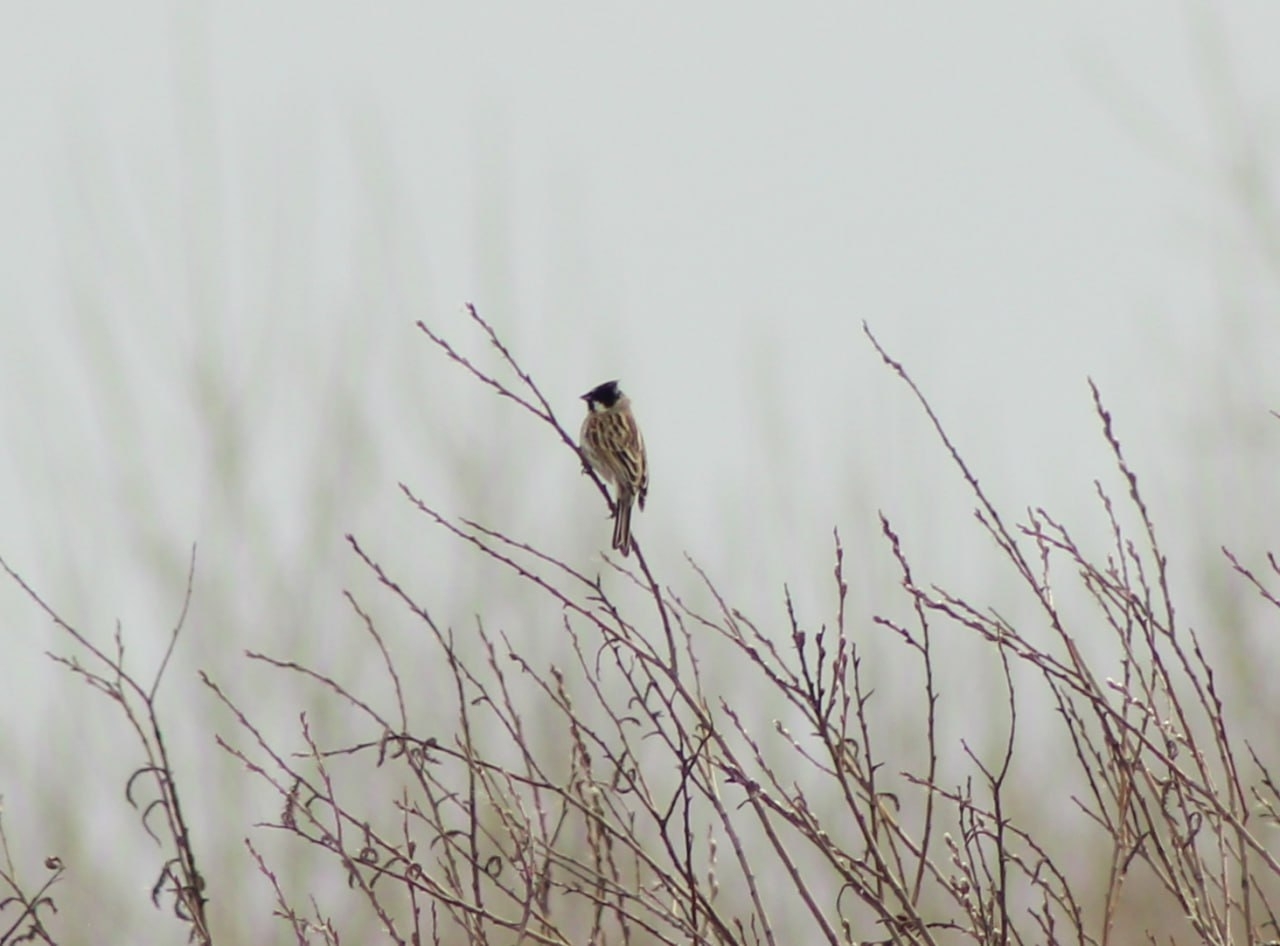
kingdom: Animalia
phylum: Chordata
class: Aves
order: Passeriformes
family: Emberizidae
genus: Emberiza
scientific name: Emberiza schoeniclus
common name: Reed bunting
